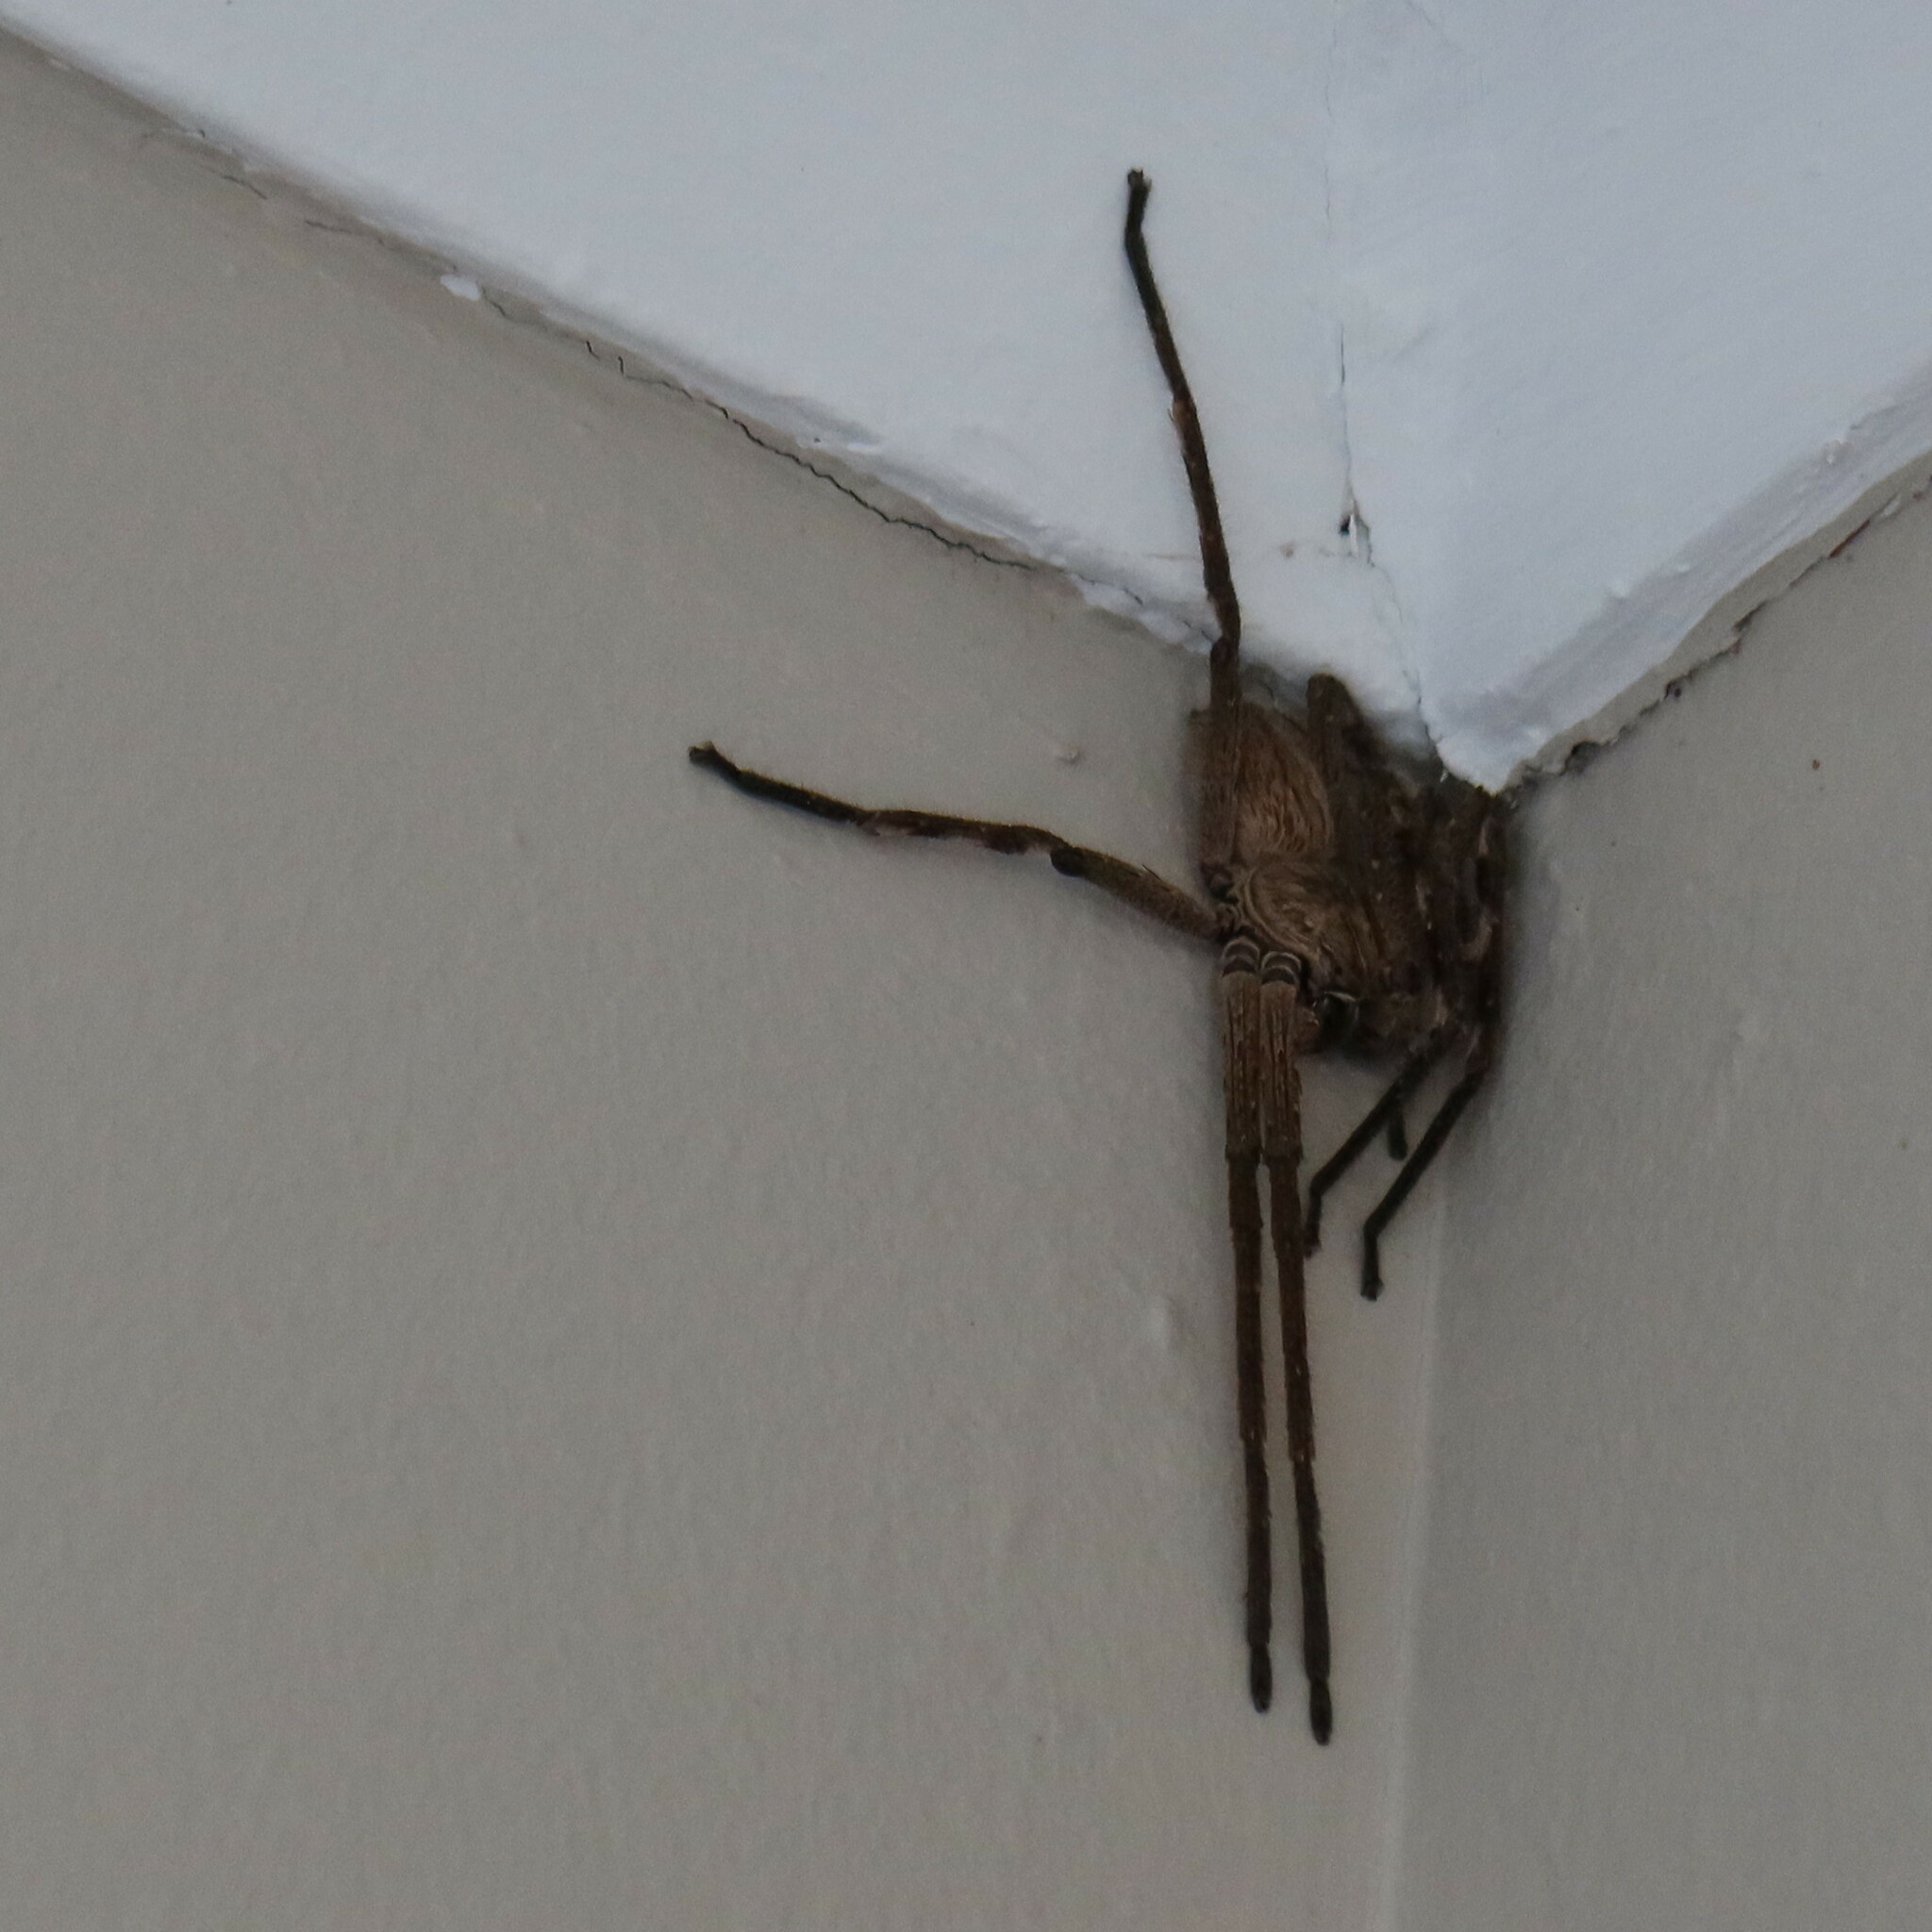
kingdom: Animalia
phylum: Arthropoda
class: Arachnida
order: Araneae
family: Sparassidae
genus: Palystes
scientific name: Palystes superciliosus
